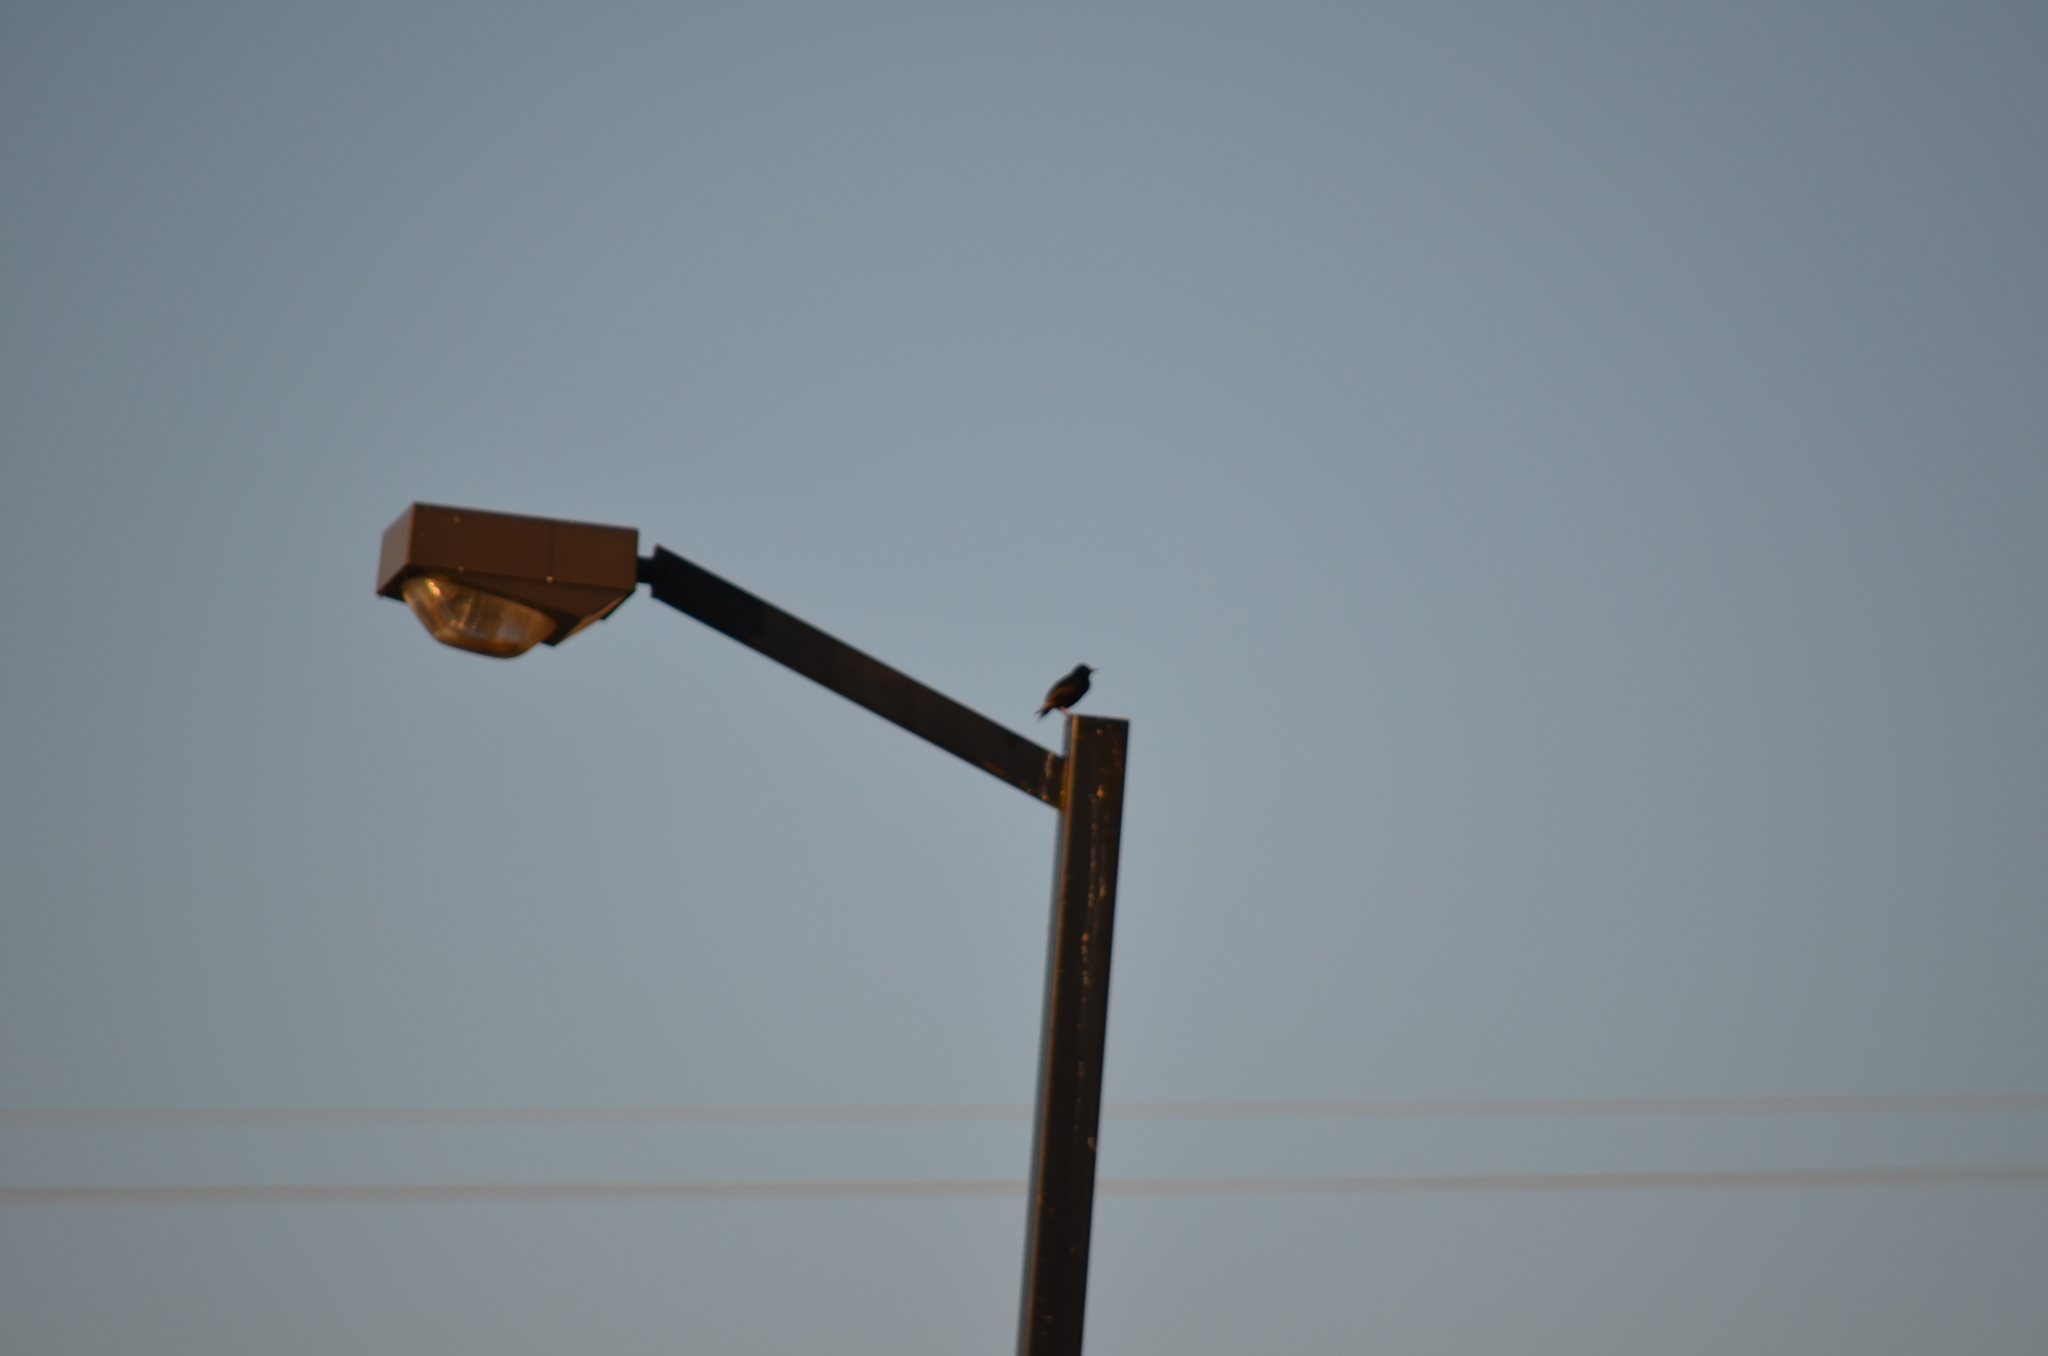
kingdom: Animalia
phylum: Chordata
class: Aves
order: Passeriformes
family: Sturnidae
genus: Sturnus
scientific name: Sturnus vulgaris
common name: Common starling
